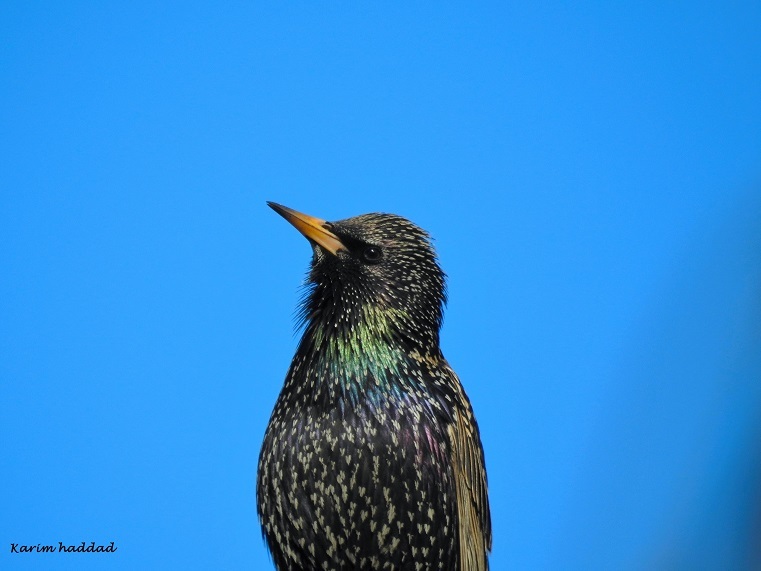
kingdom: Animalia
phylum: Chordata
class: Aves
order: Passeriformes
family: Sturnidae
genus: Sturnus
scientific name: Sturnus vulgaris
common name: Common starling
